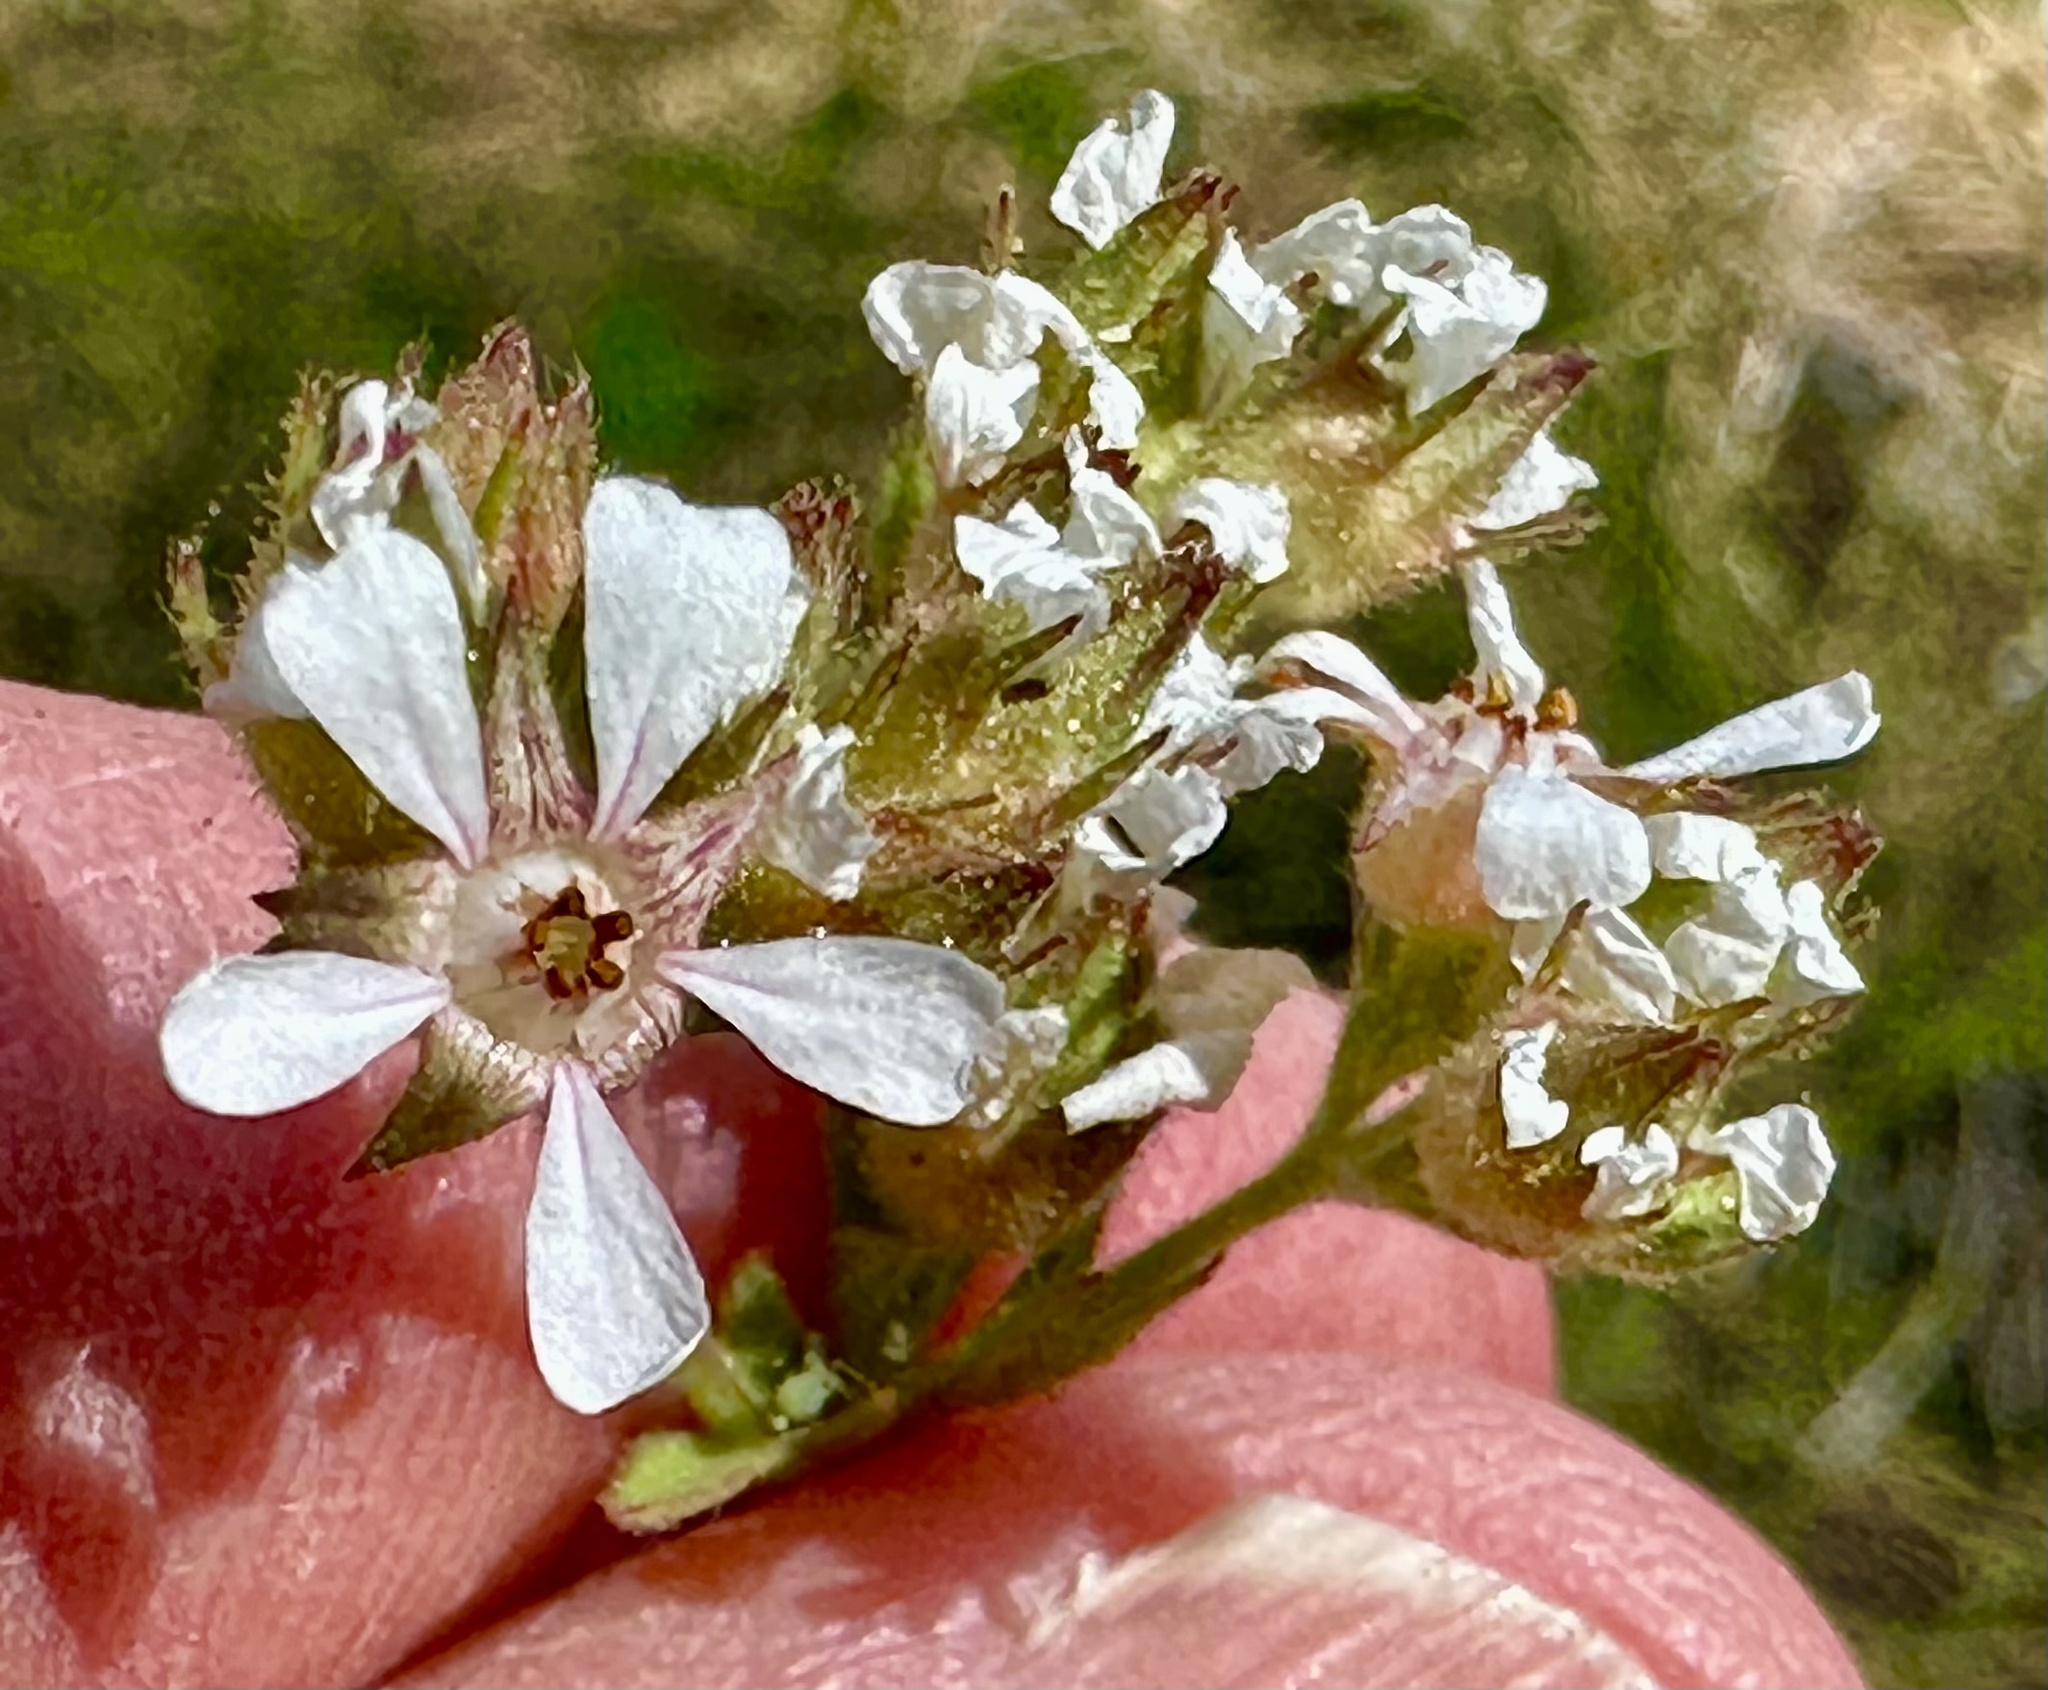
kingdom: Plantae
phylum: Tracheophyta
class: Magnoliopsida
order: Rosales
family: Rosaceae
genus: Potentilla
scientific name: Potentilla douglasii
